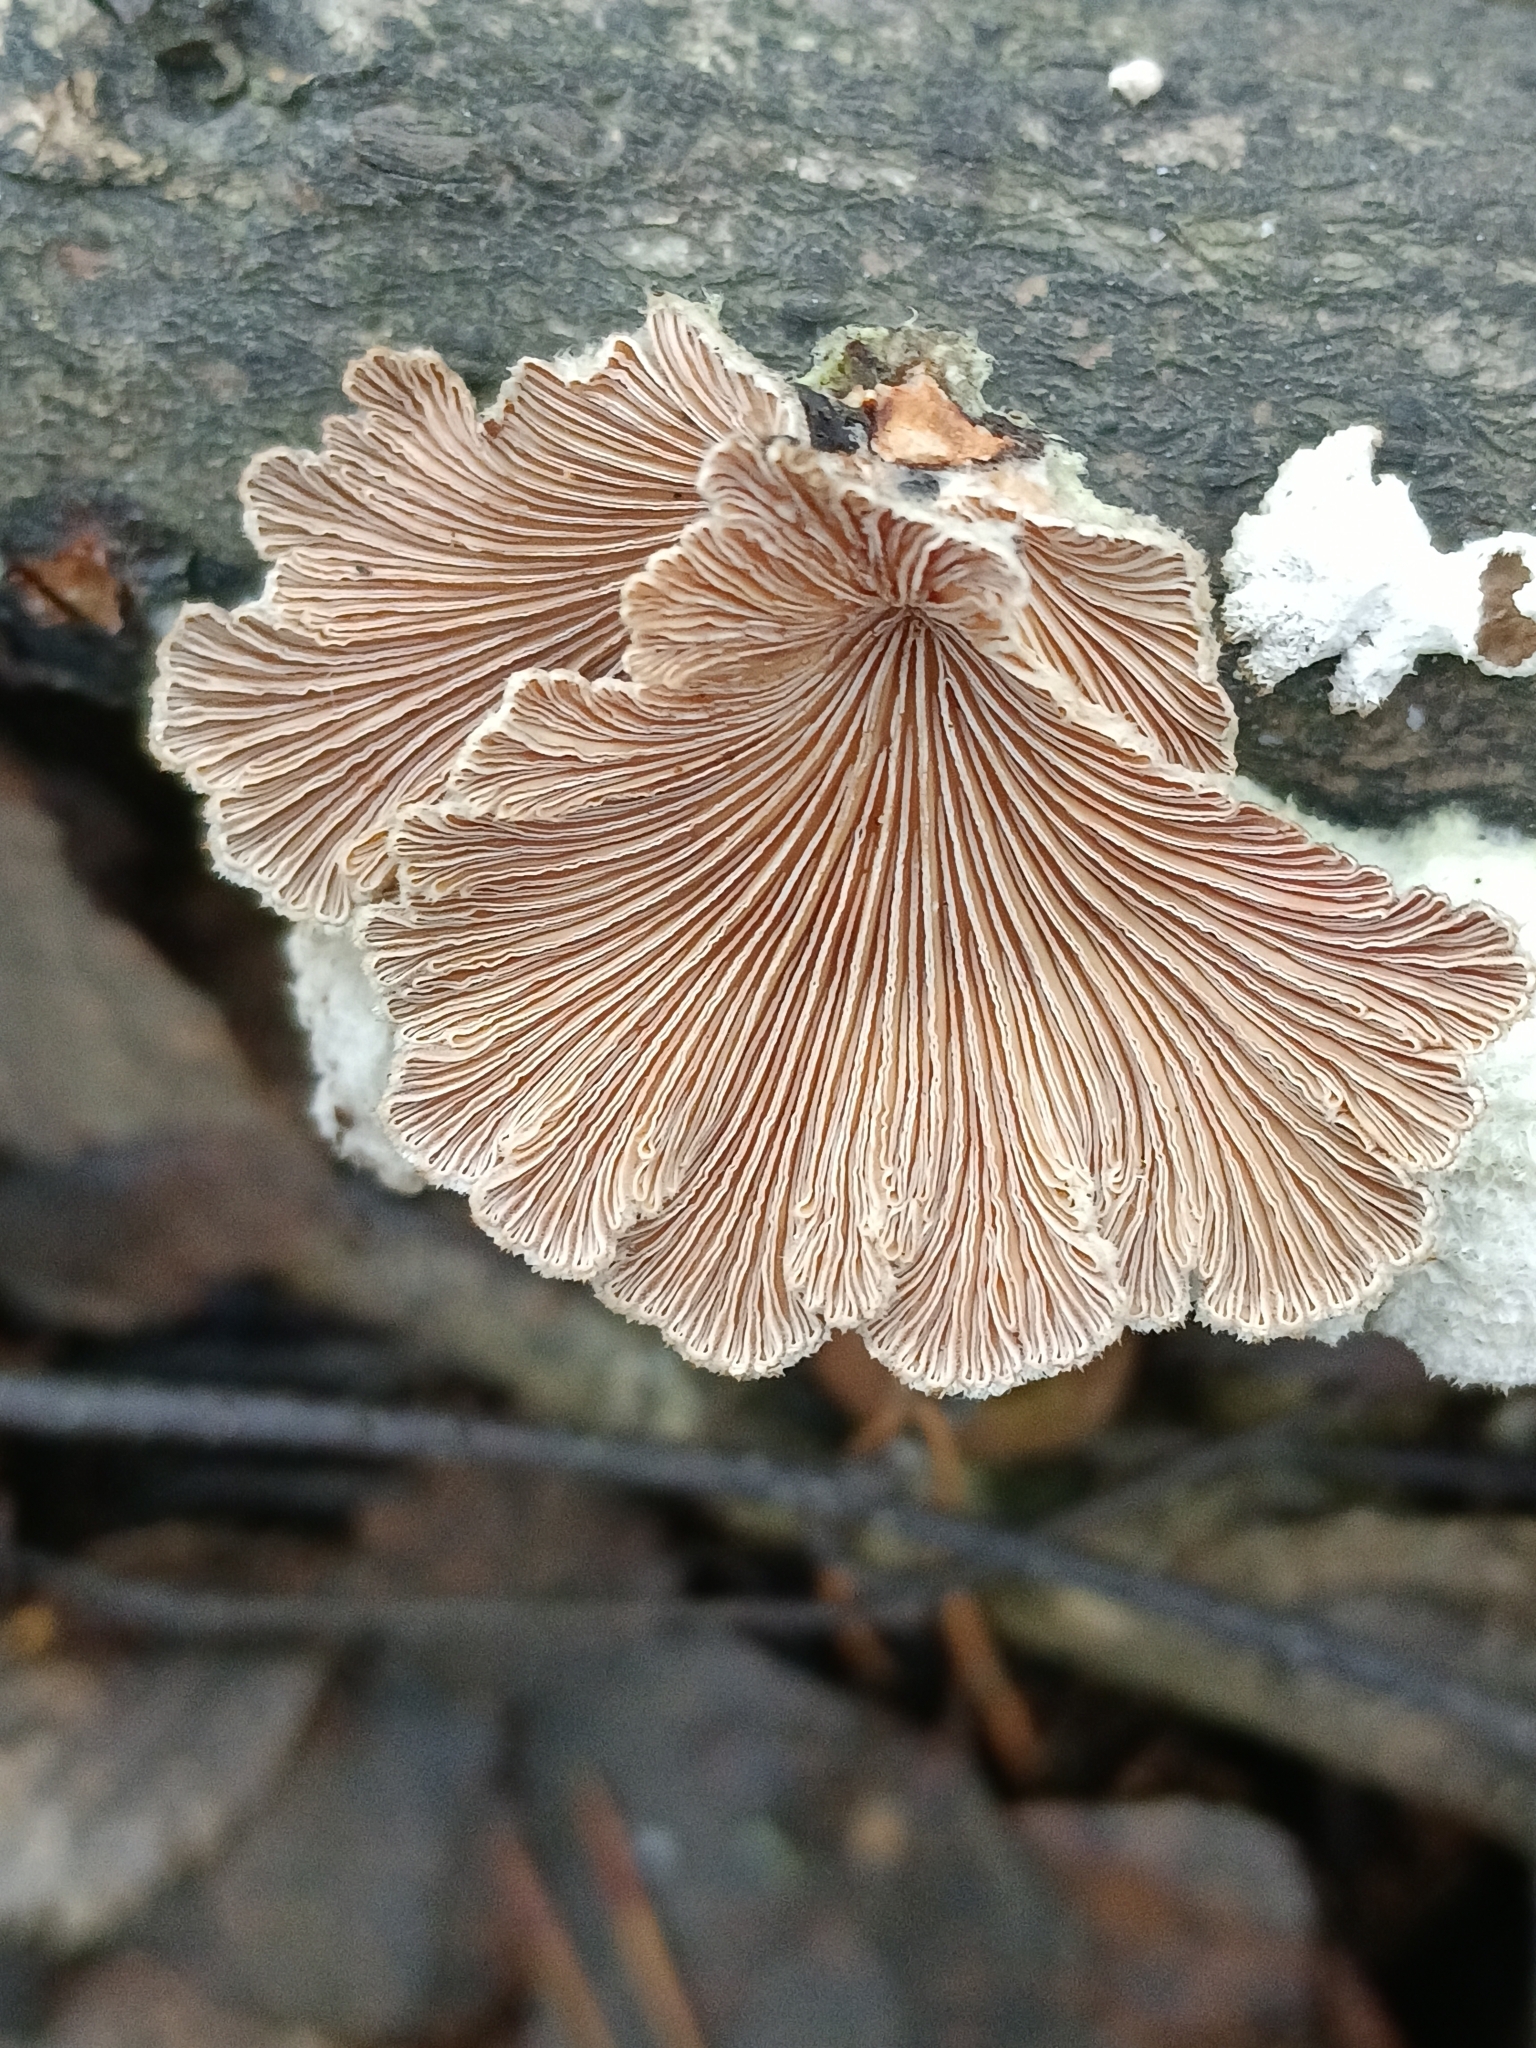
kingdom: Fungi
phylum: Basidiomycota
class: Agaricomycetes
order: Agaricales
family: Schizophyllaceae
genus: Schizophyllum
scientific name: Schizophyllum commune
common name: Common porecrust
